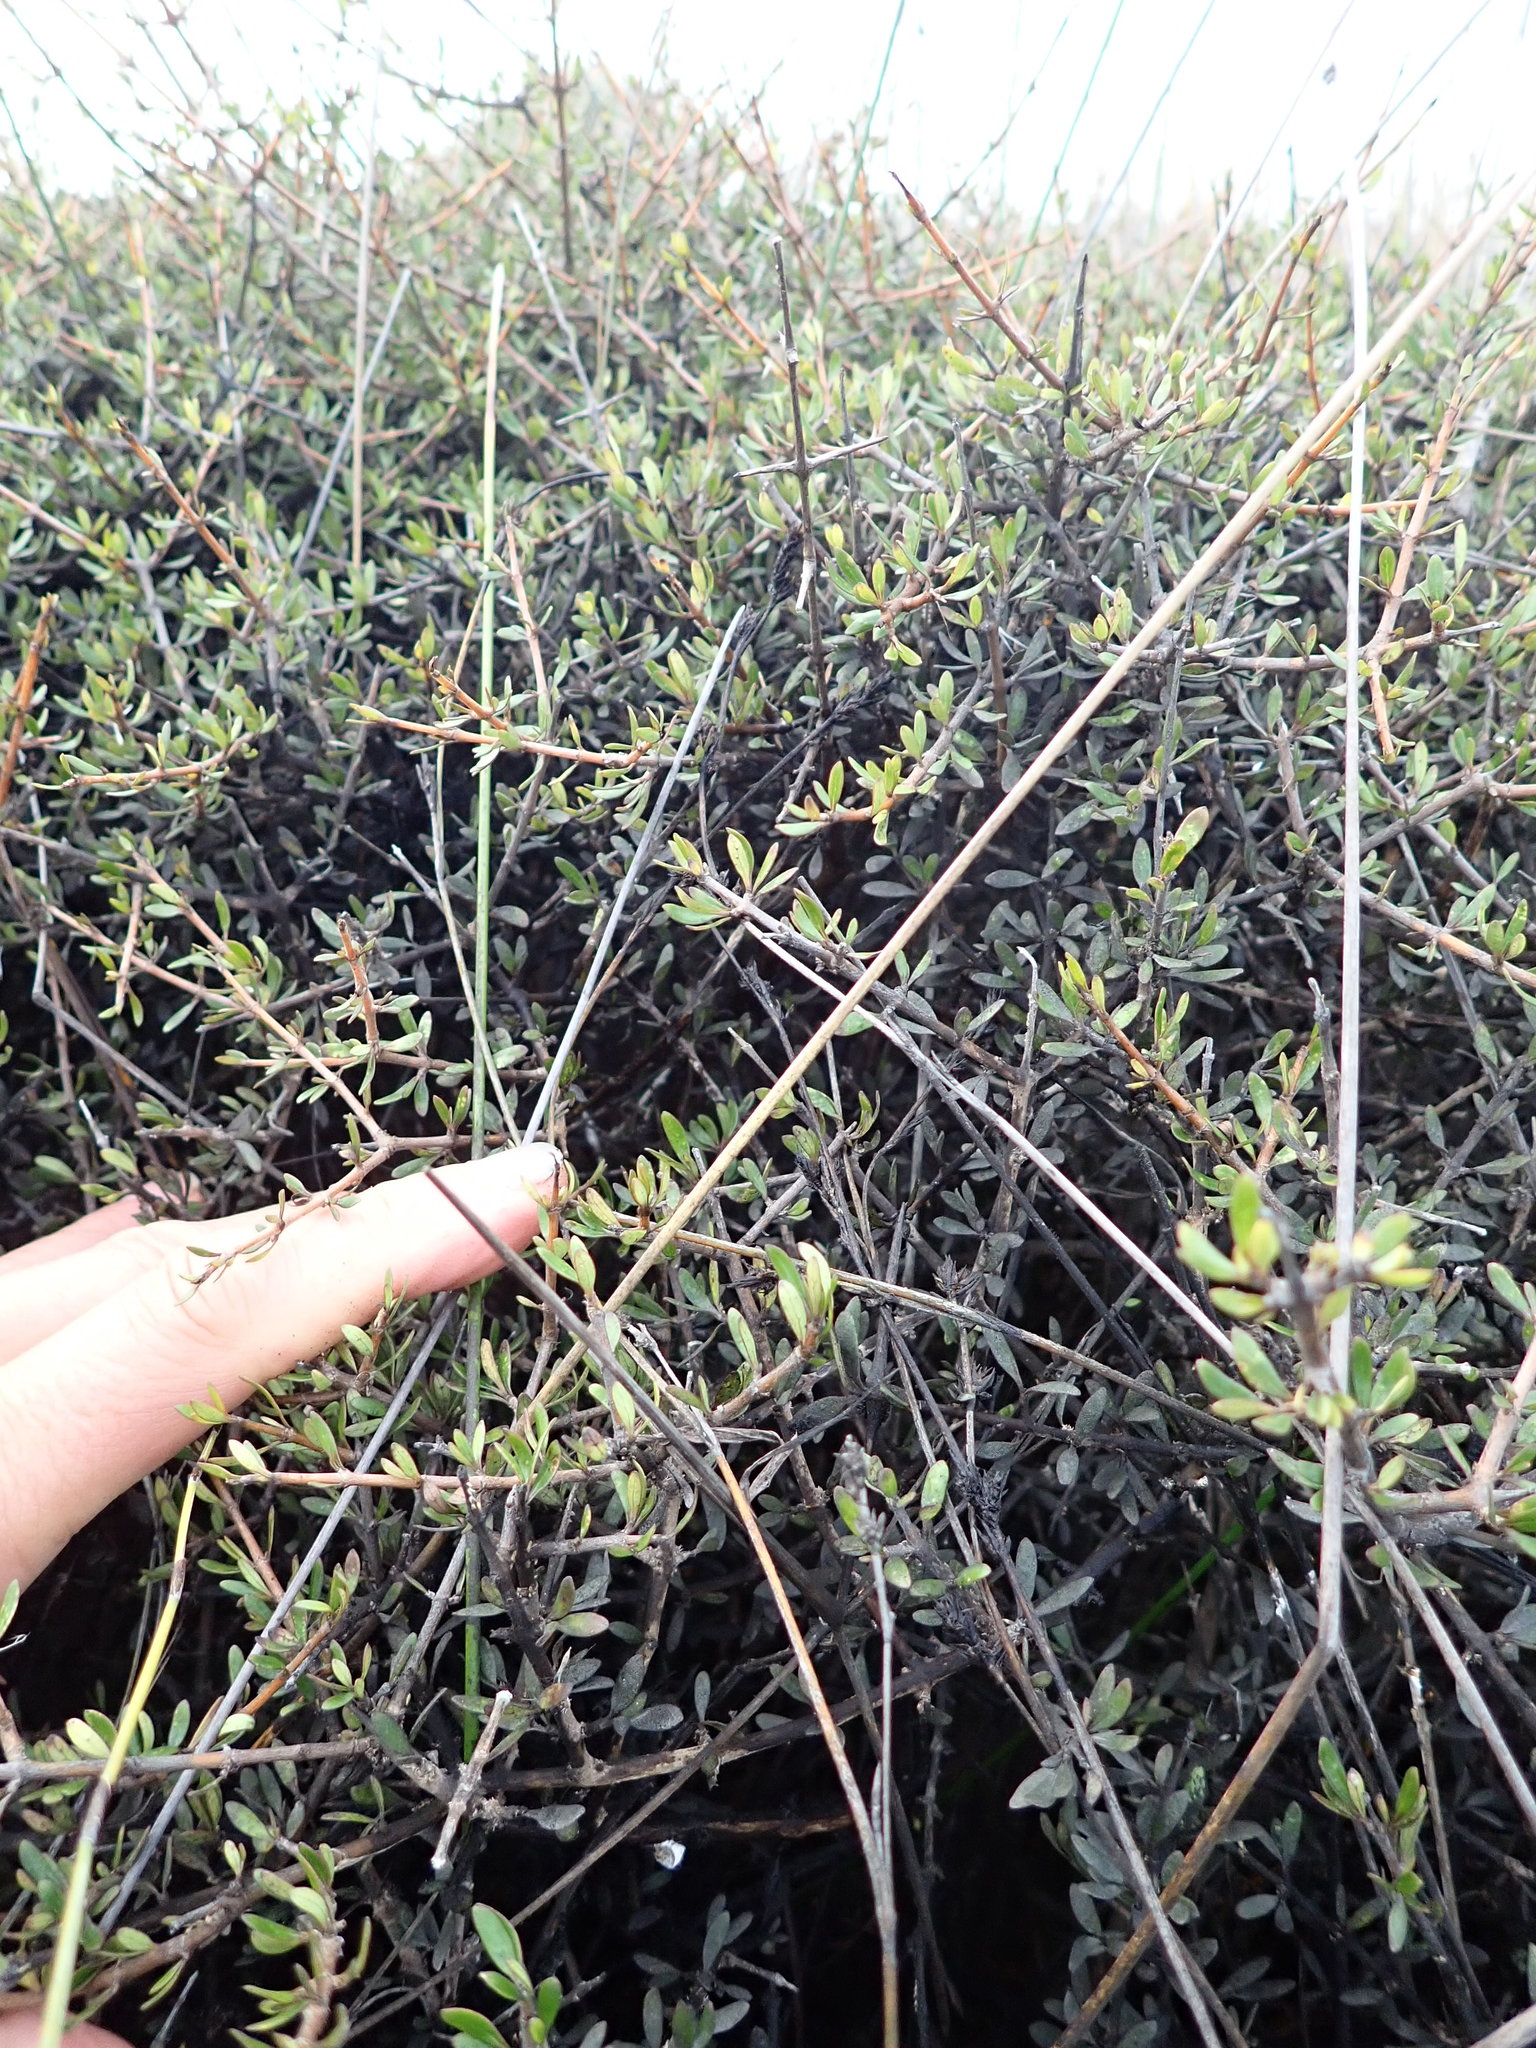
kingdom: Plantae
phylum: Tracheophyta
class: Magnoliopsida
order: Malvales
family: Malvaceae
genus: Plagianthus
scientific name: Plagianthus divaricatus
